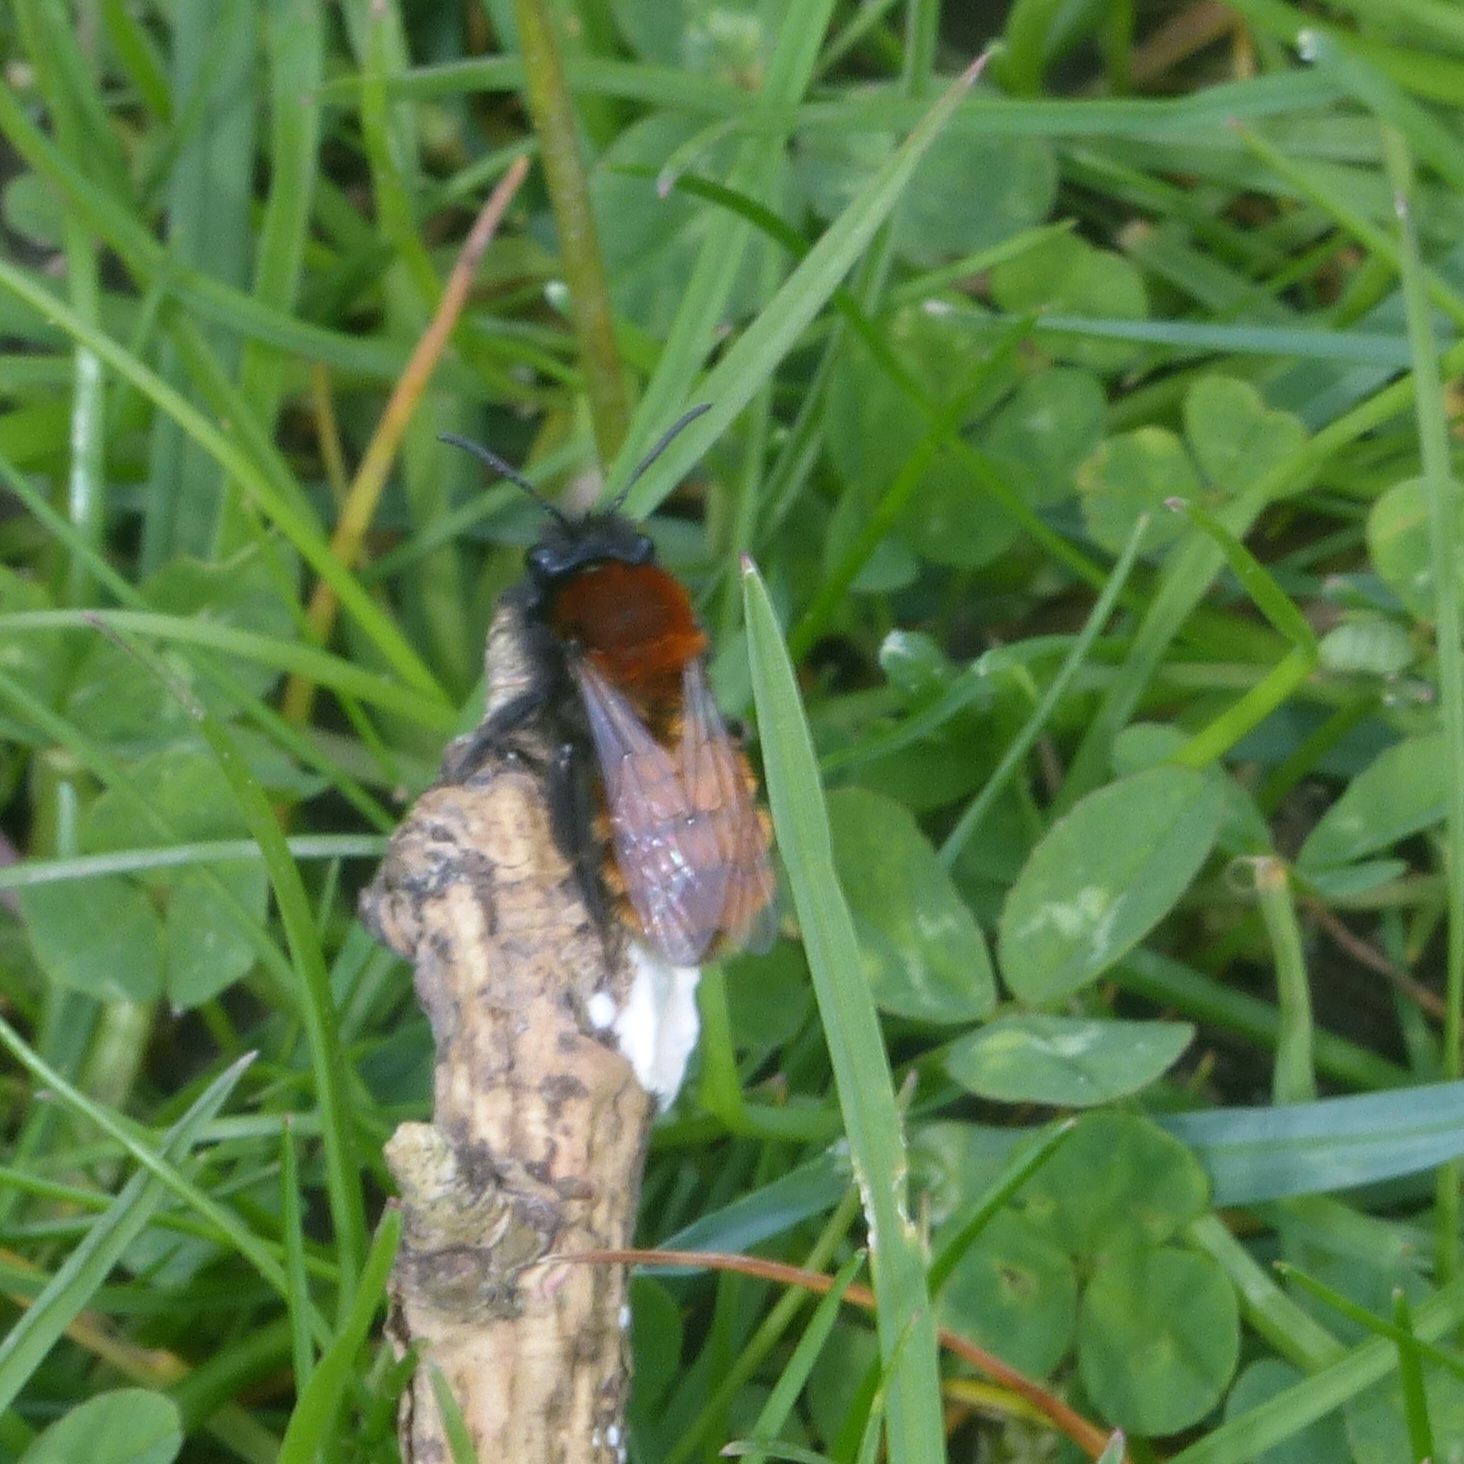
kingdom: Animalia
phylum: Arthropoda
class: Insecta
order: Hymenoptera
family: Andrenidae
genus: Andrena
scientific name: Andrena fulva
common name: Tawny mining bee
